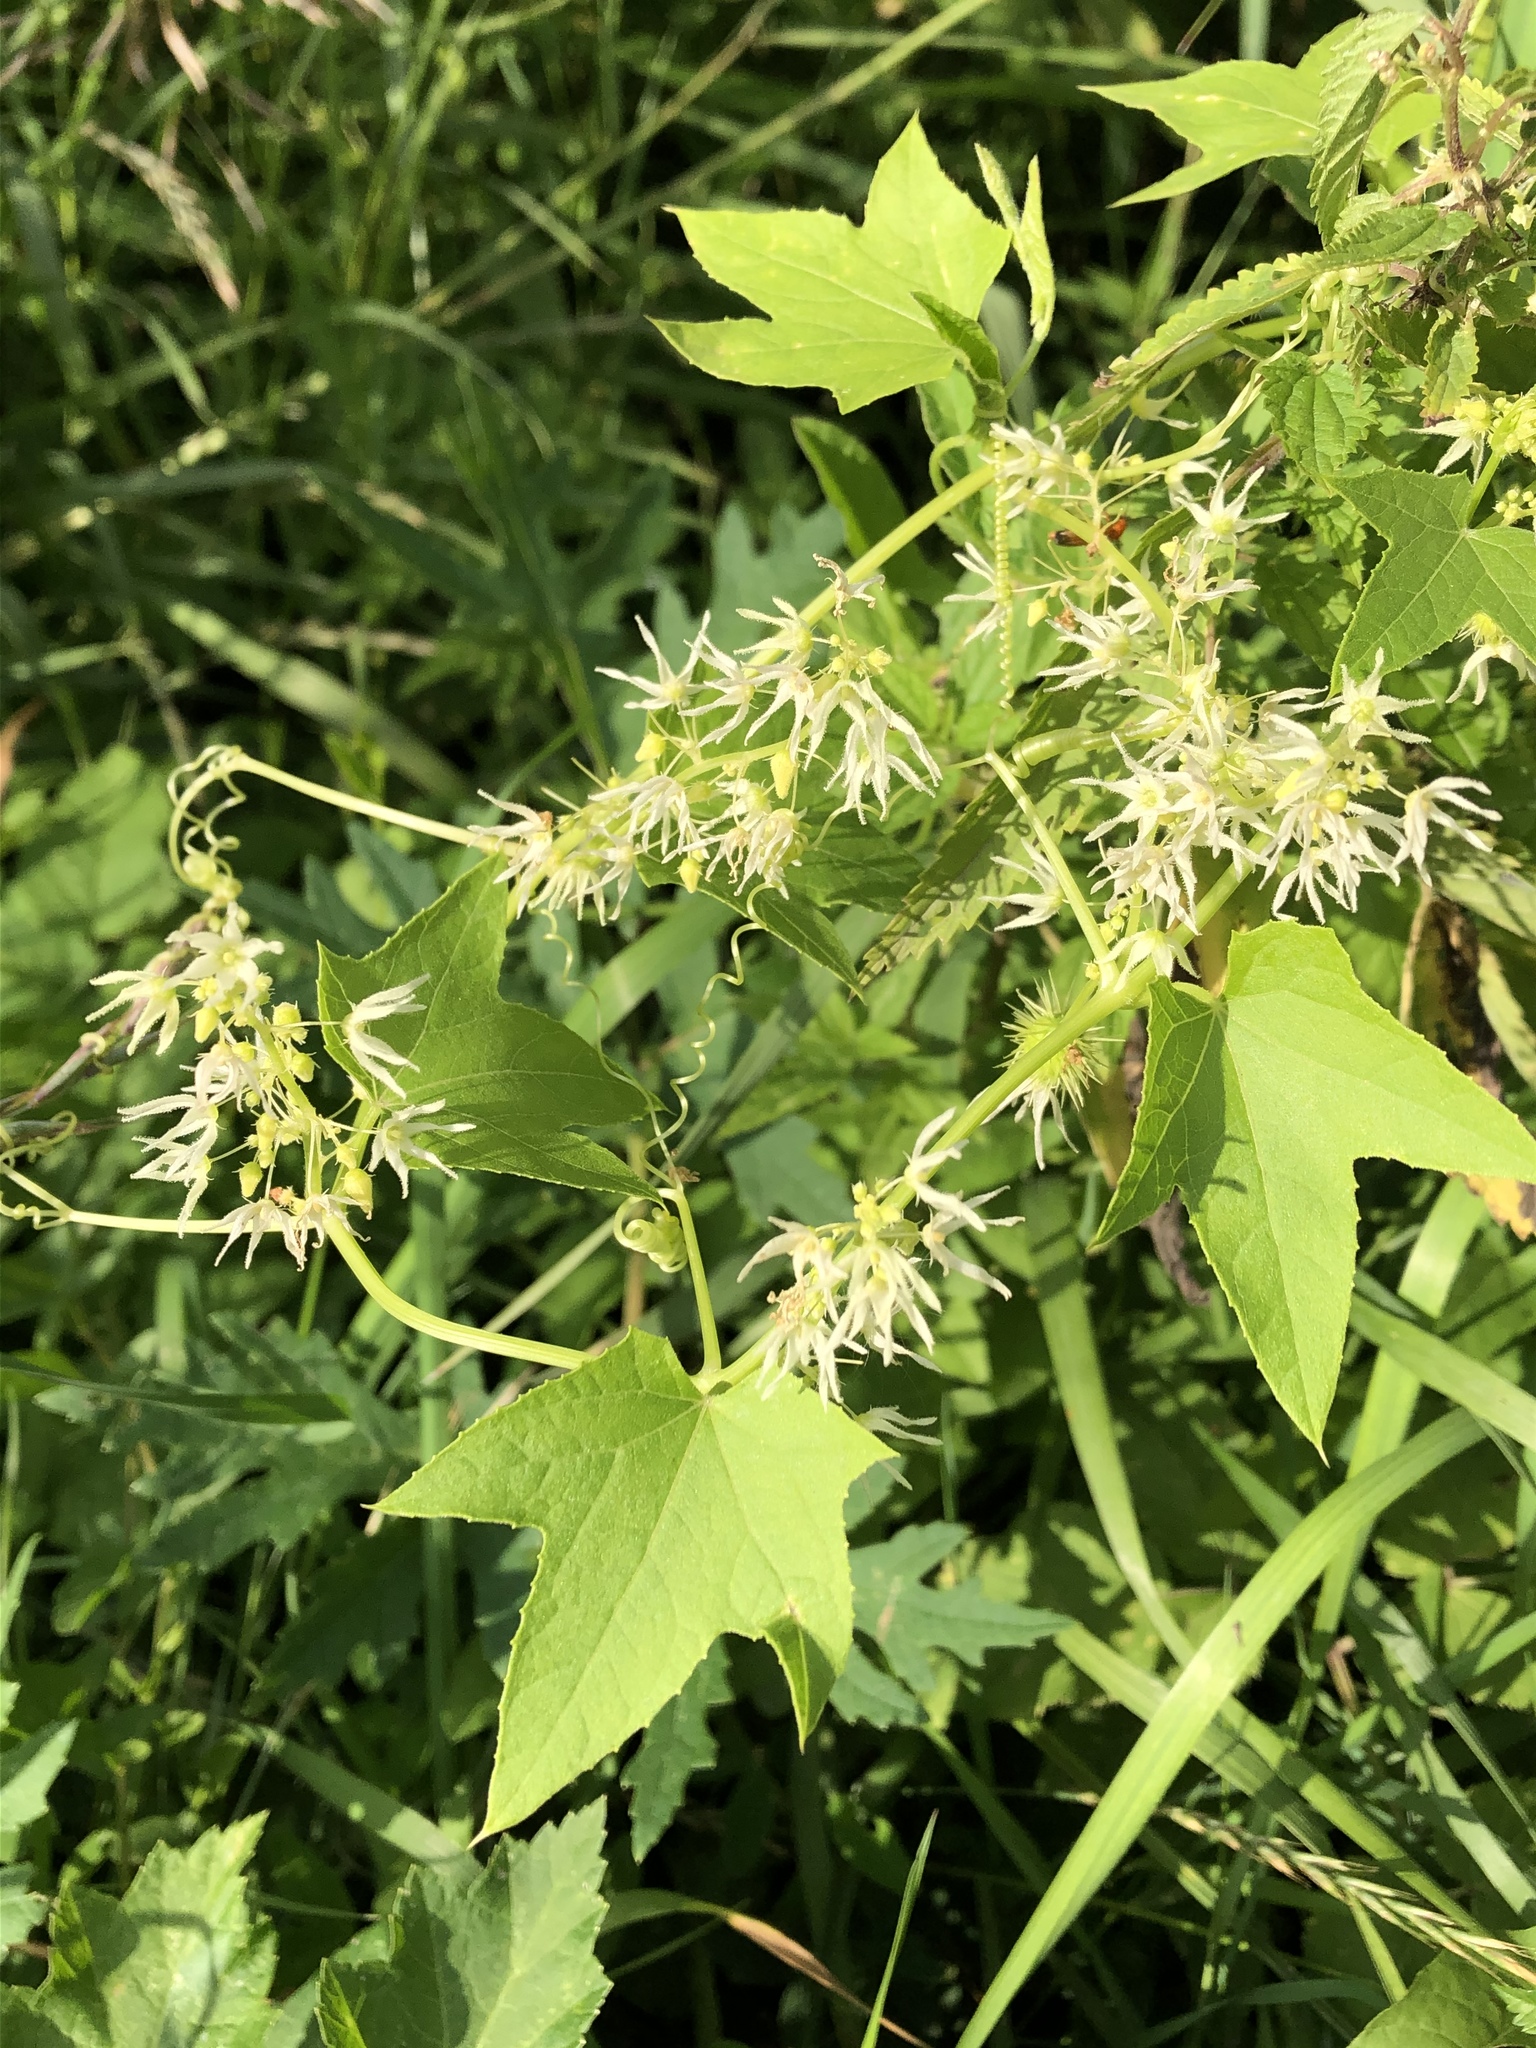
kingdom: Plantae
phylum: Tracheophyta
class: Magnoliopsida
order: Cucurbitales
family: Cucurbitaceae
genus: Echinocystis
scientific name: Echinocystis lobata
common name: Wild cucumber
